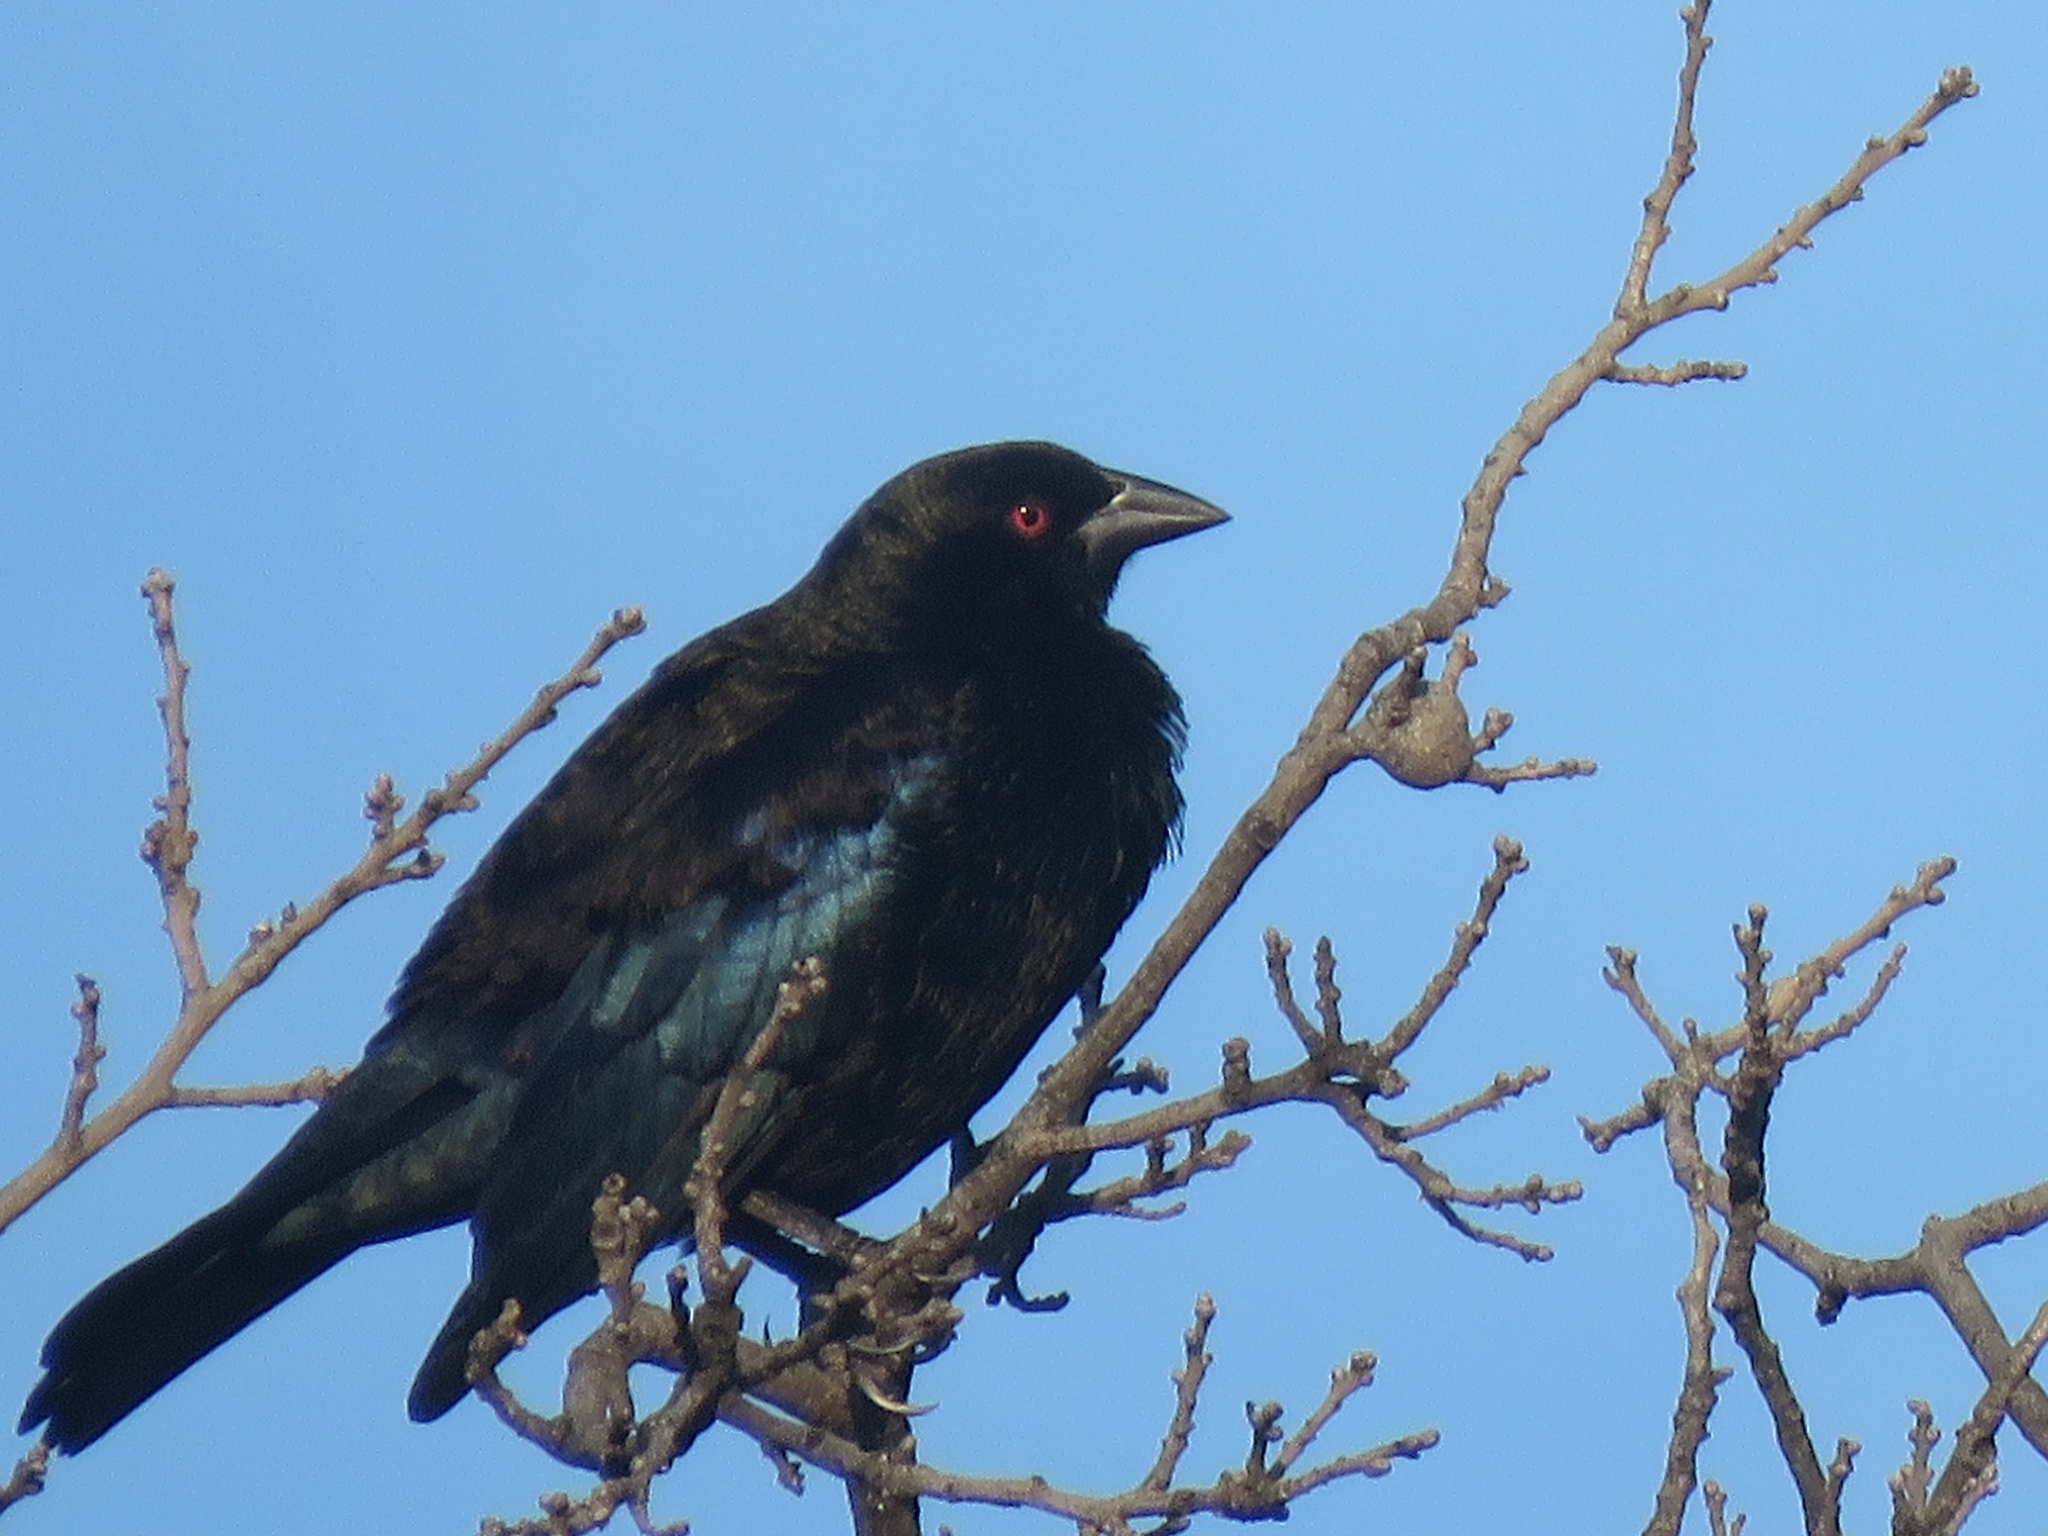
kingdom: Animalia
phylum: Chordata
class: Aves
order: Passeriformes
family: Icteridae
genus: Molothrus
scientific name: Molothrus aeneus
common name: Bronzed cowbird
